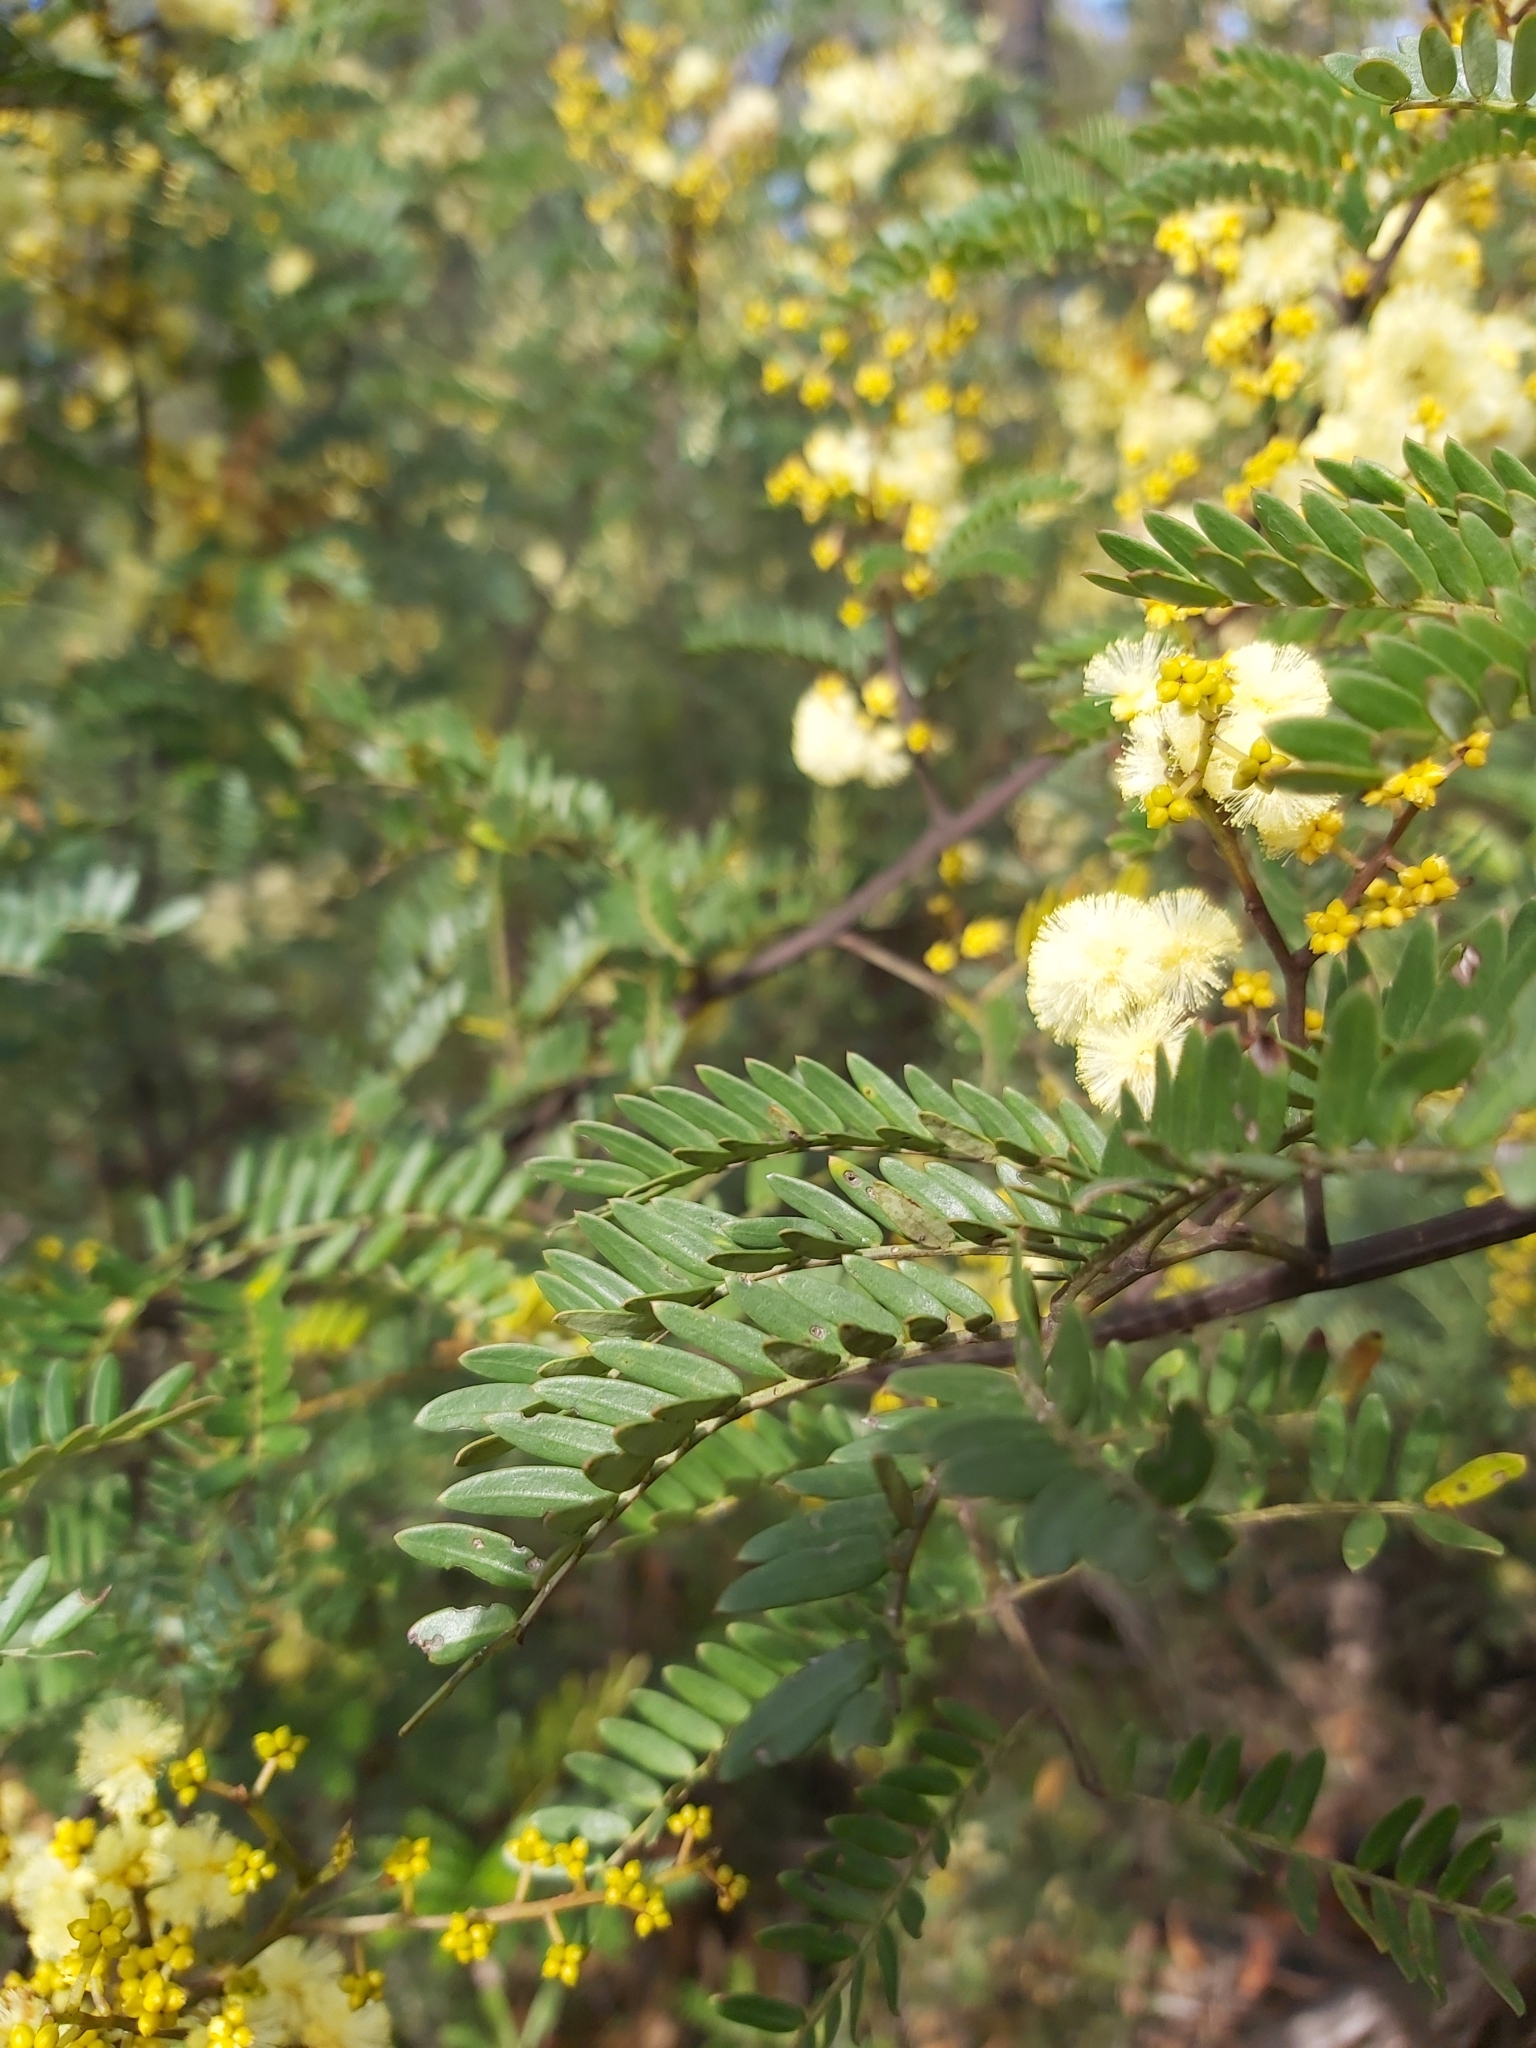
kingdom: Plantae
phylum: Tracheophyta
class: Magnoliopsida
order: Fabales
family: Fabaceae
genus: Acacia
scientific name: Acacia terminalis
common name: Cedar wattle
